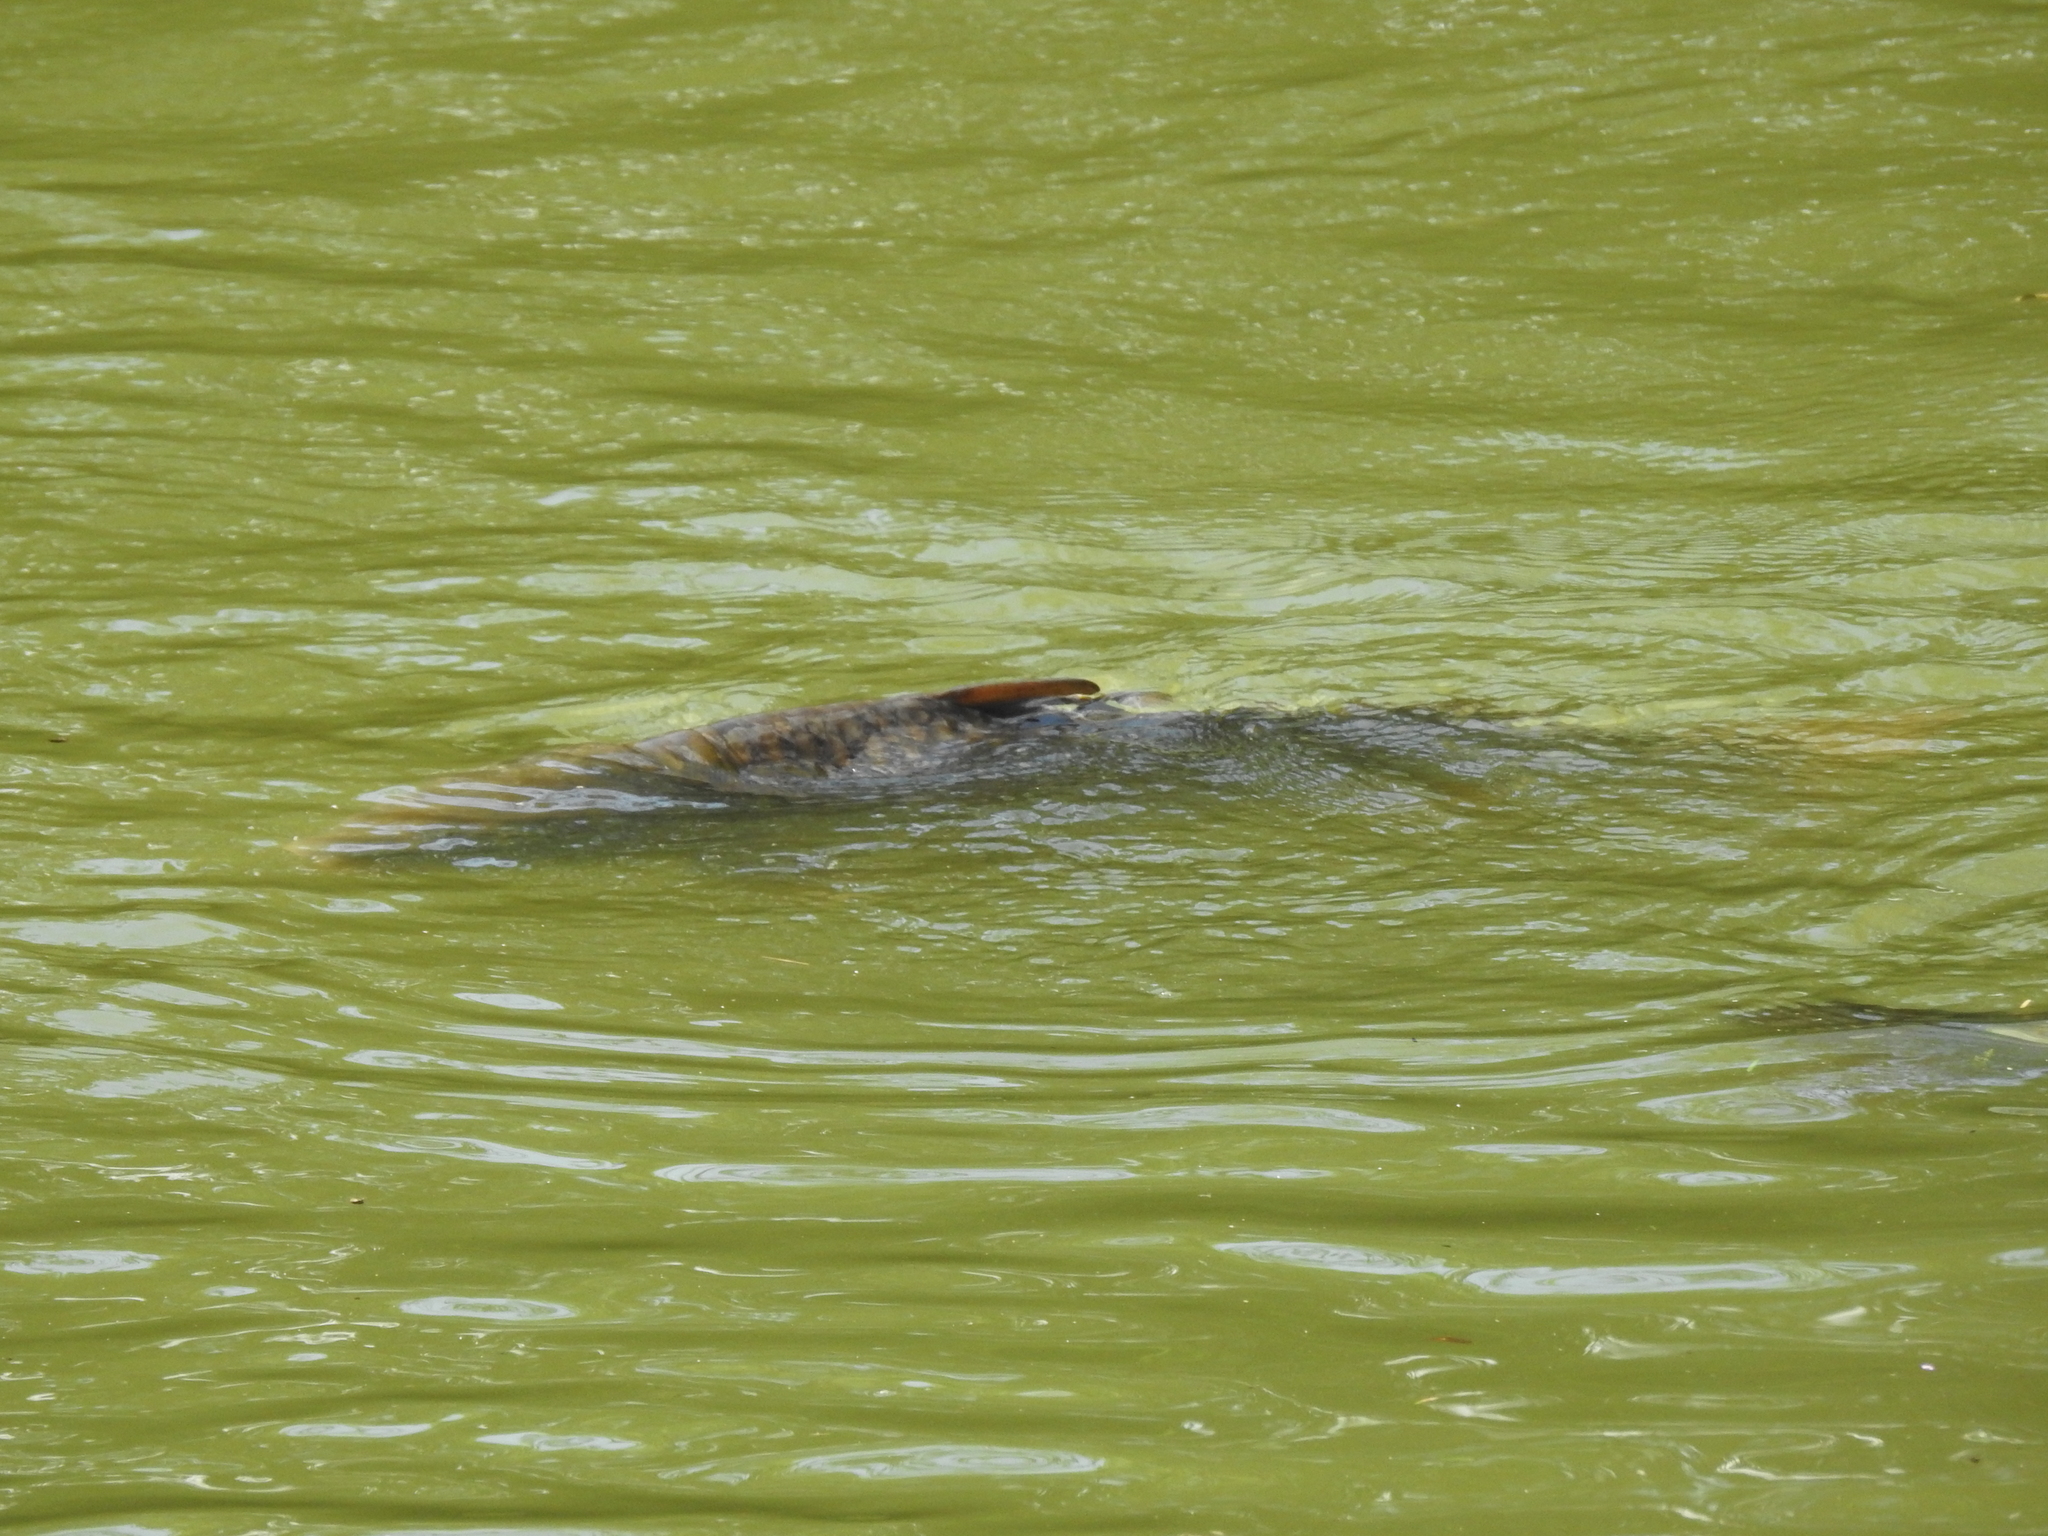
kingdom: Animalia
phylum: Chordata
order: Cypriniformes
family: Cyprinidae
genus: Cyprinus
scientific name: Cyprinus carpio
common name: Common carp
